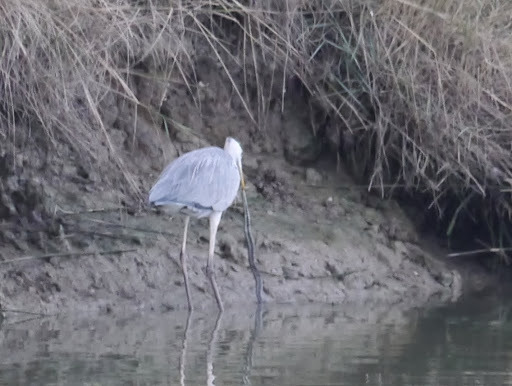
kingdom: Animalia
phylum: Chordata
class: Aves
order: Pelecaniformes
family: Ardeidae
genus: Ardea
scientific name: Ardea cinerea
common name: Grey heron
